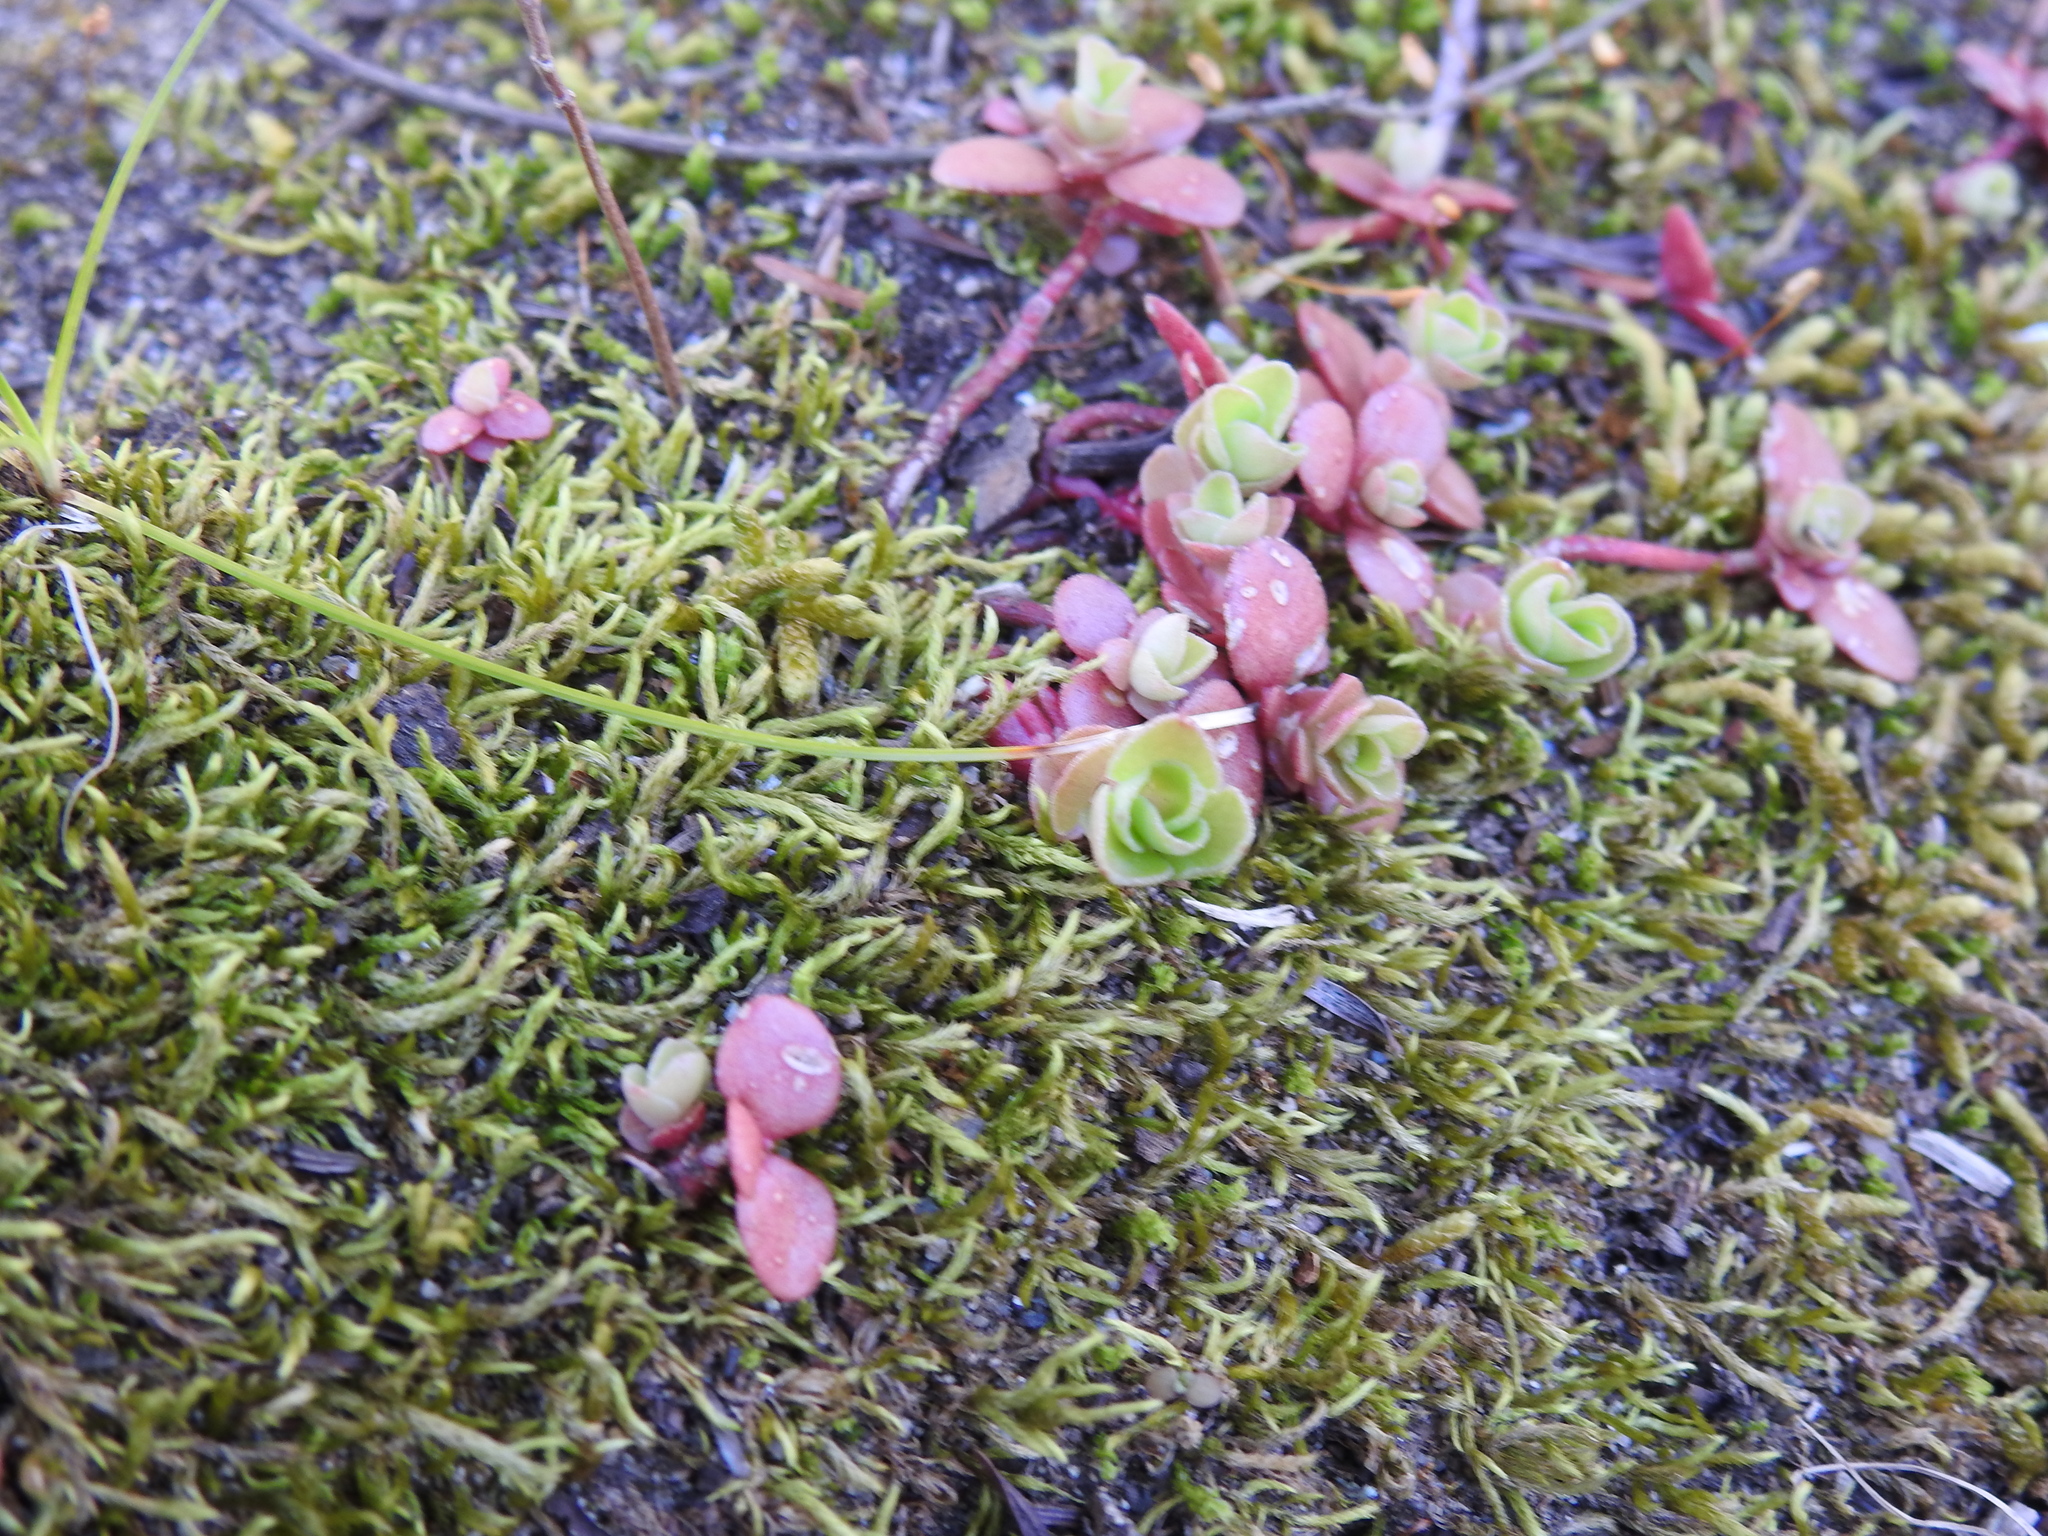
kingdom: Plantae
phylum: Tracheophyta
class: Magnoliopsida
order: Saxifragales
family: Crassulaceae
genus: Sedum
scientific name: Sedum ternatum
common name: Wild stonecrop
